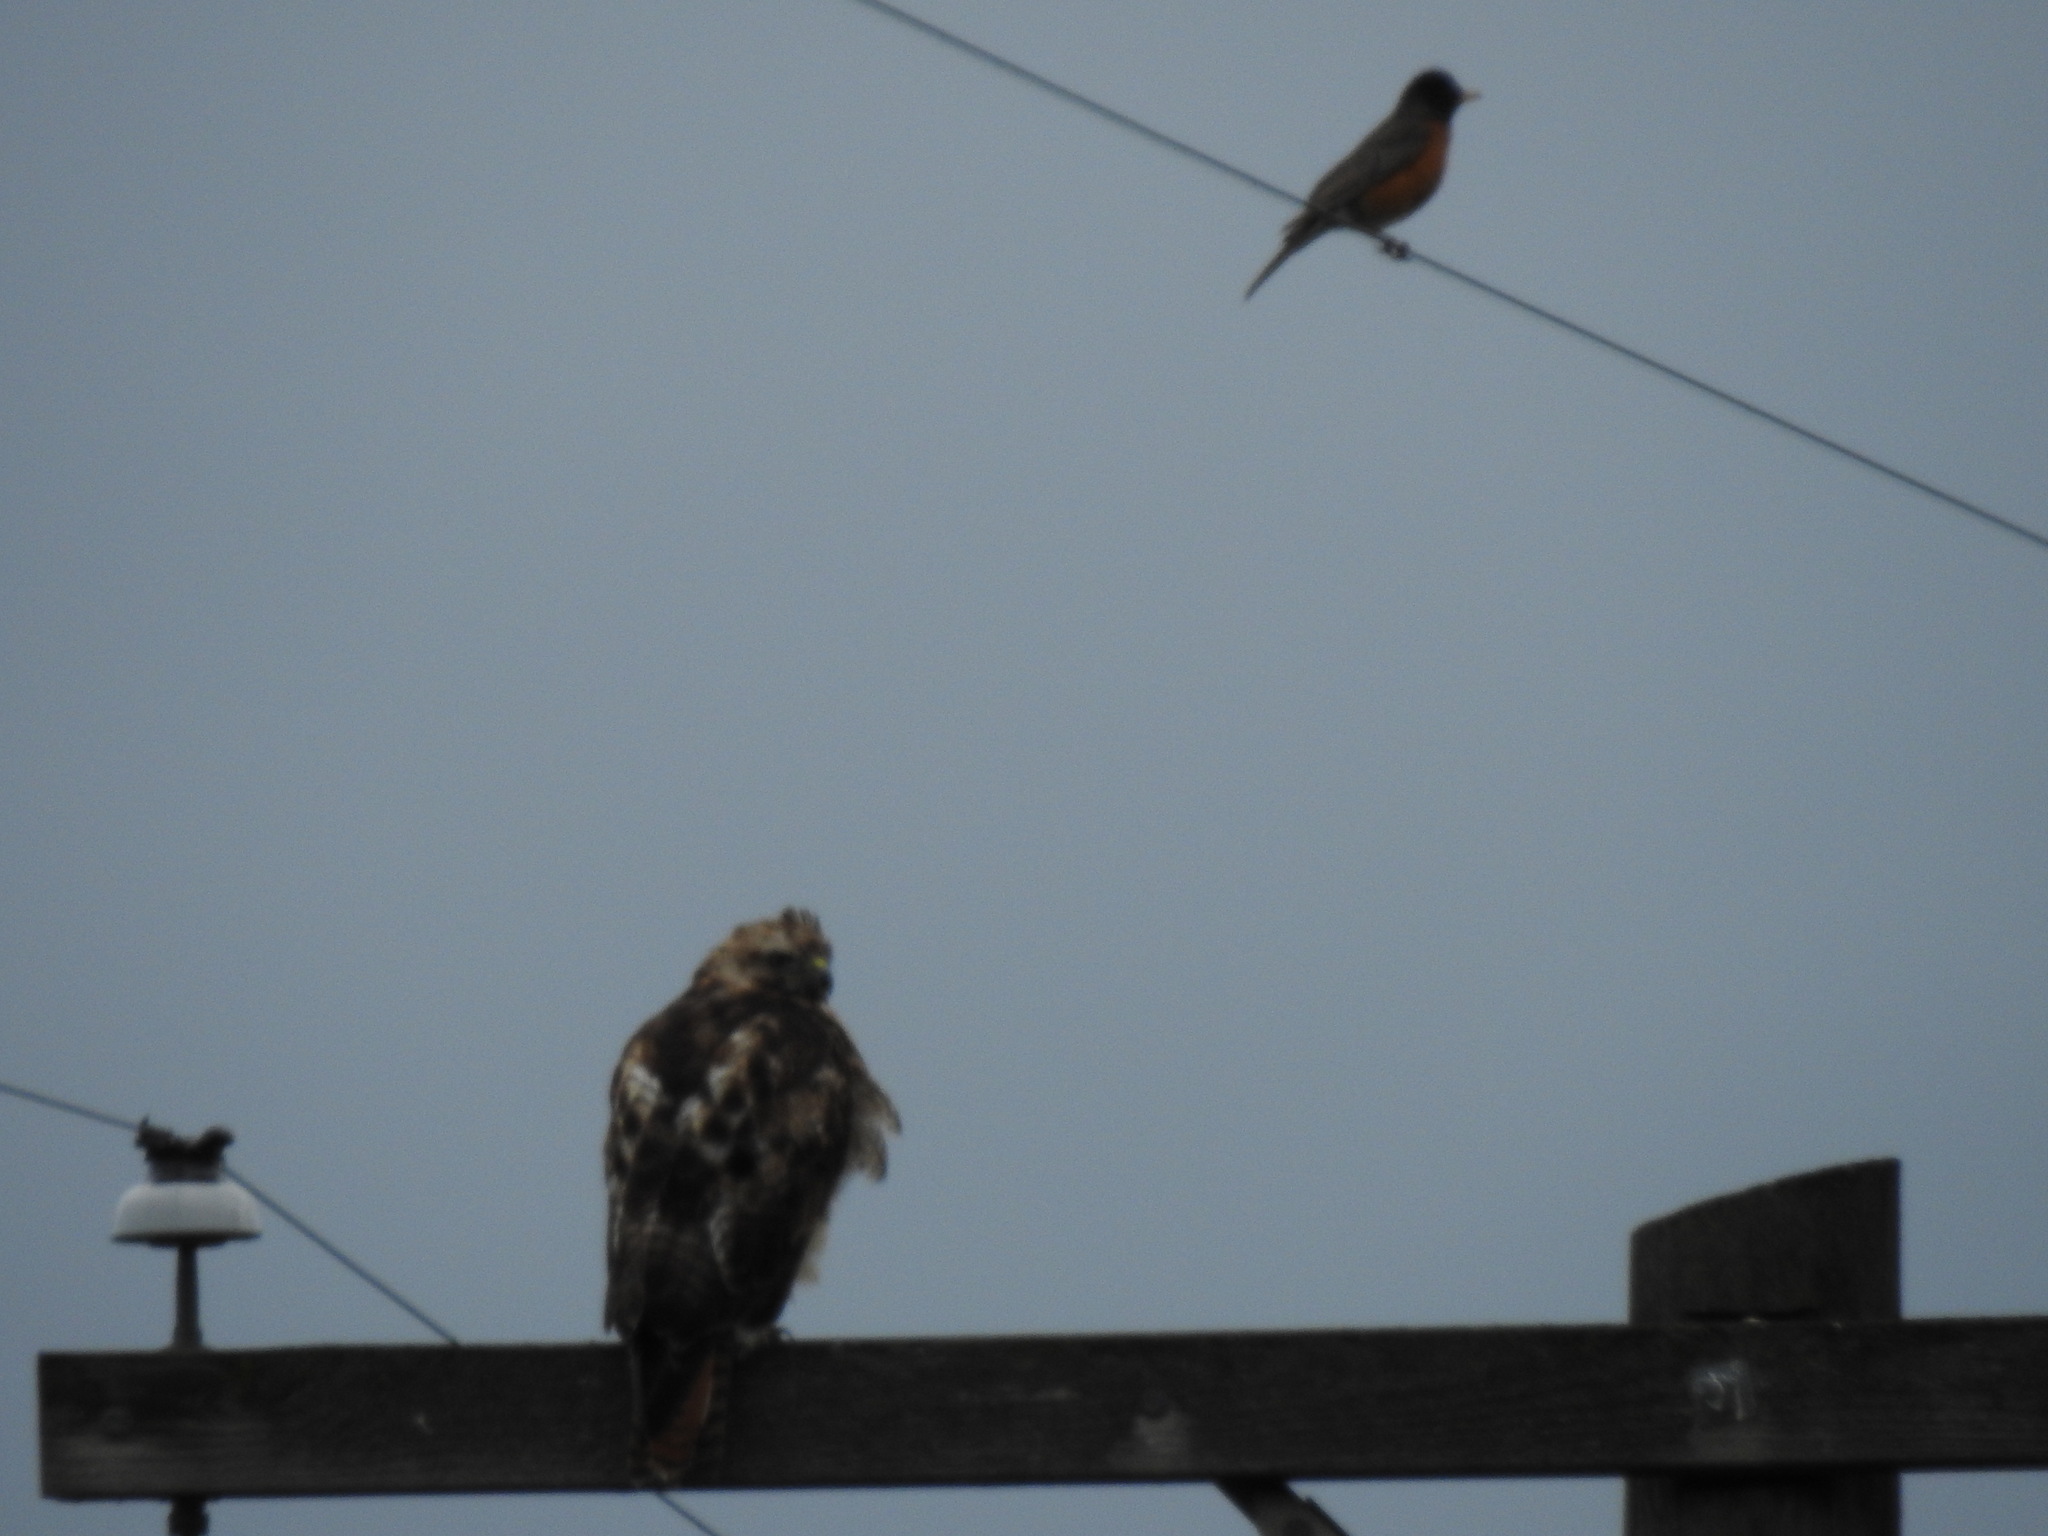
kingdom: Animalia
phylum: Chordata
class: Aves
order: Passeriformes
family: Turdidae
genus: Turdus
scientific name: Turdus migratorius
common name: American robin
